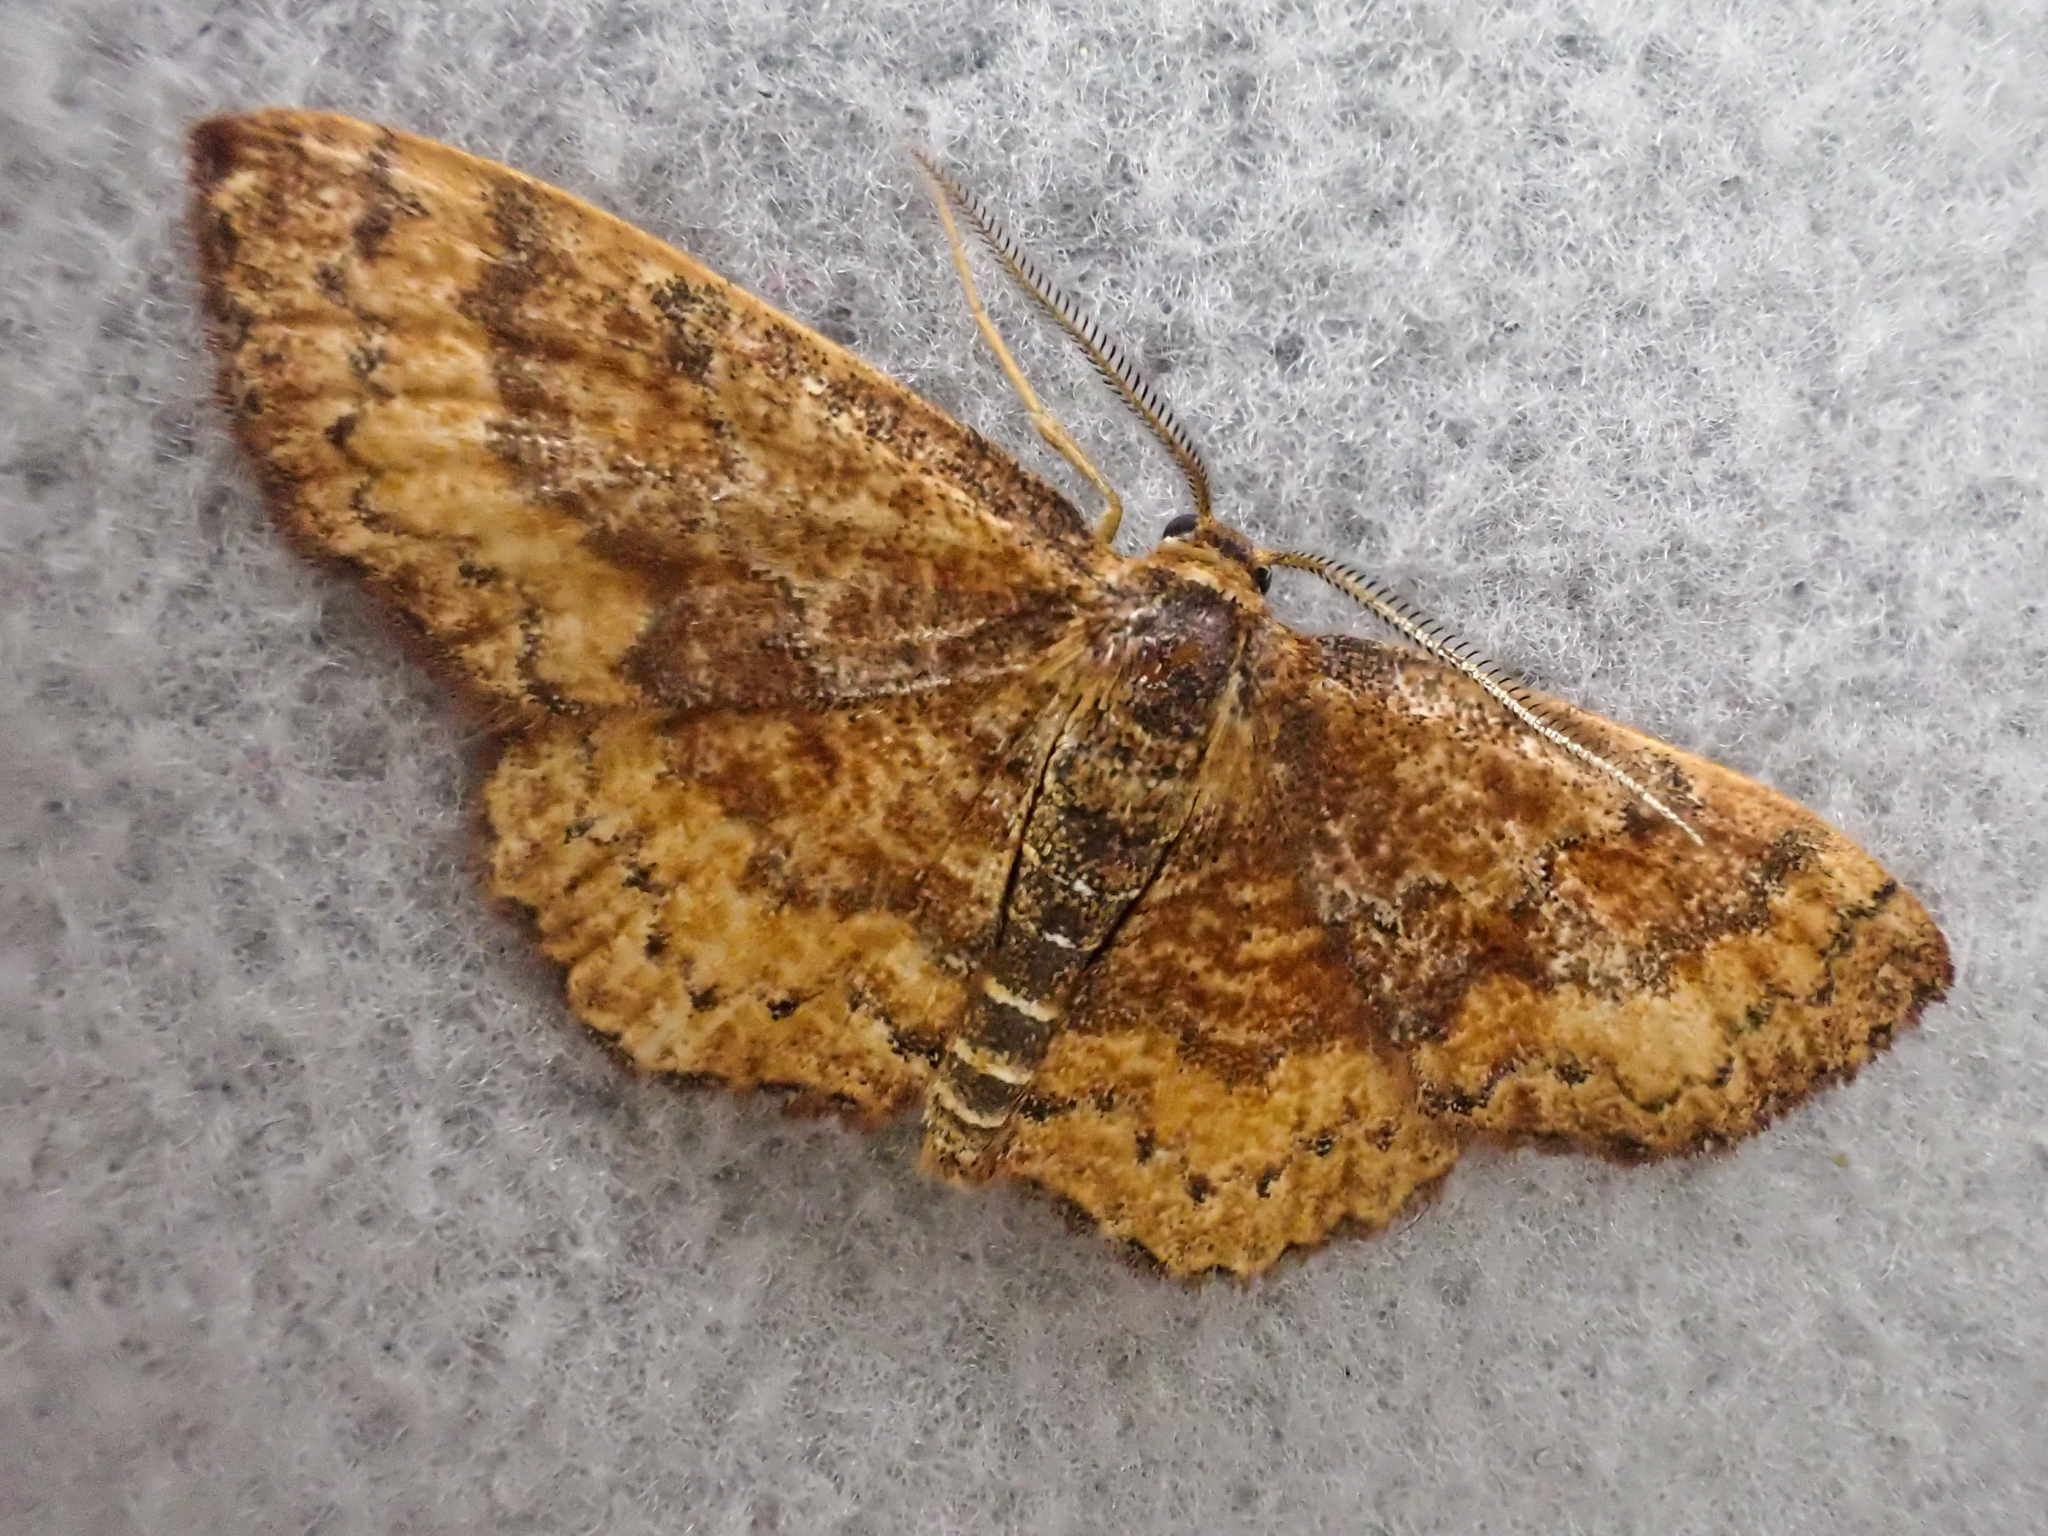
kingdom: Animalia
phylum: Arthropoda
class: Insecta
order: Lepidoptera
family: Geometridae
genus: Leptostales
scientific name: Leptostales rubromarginaria
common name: Dark-ribboned wave
